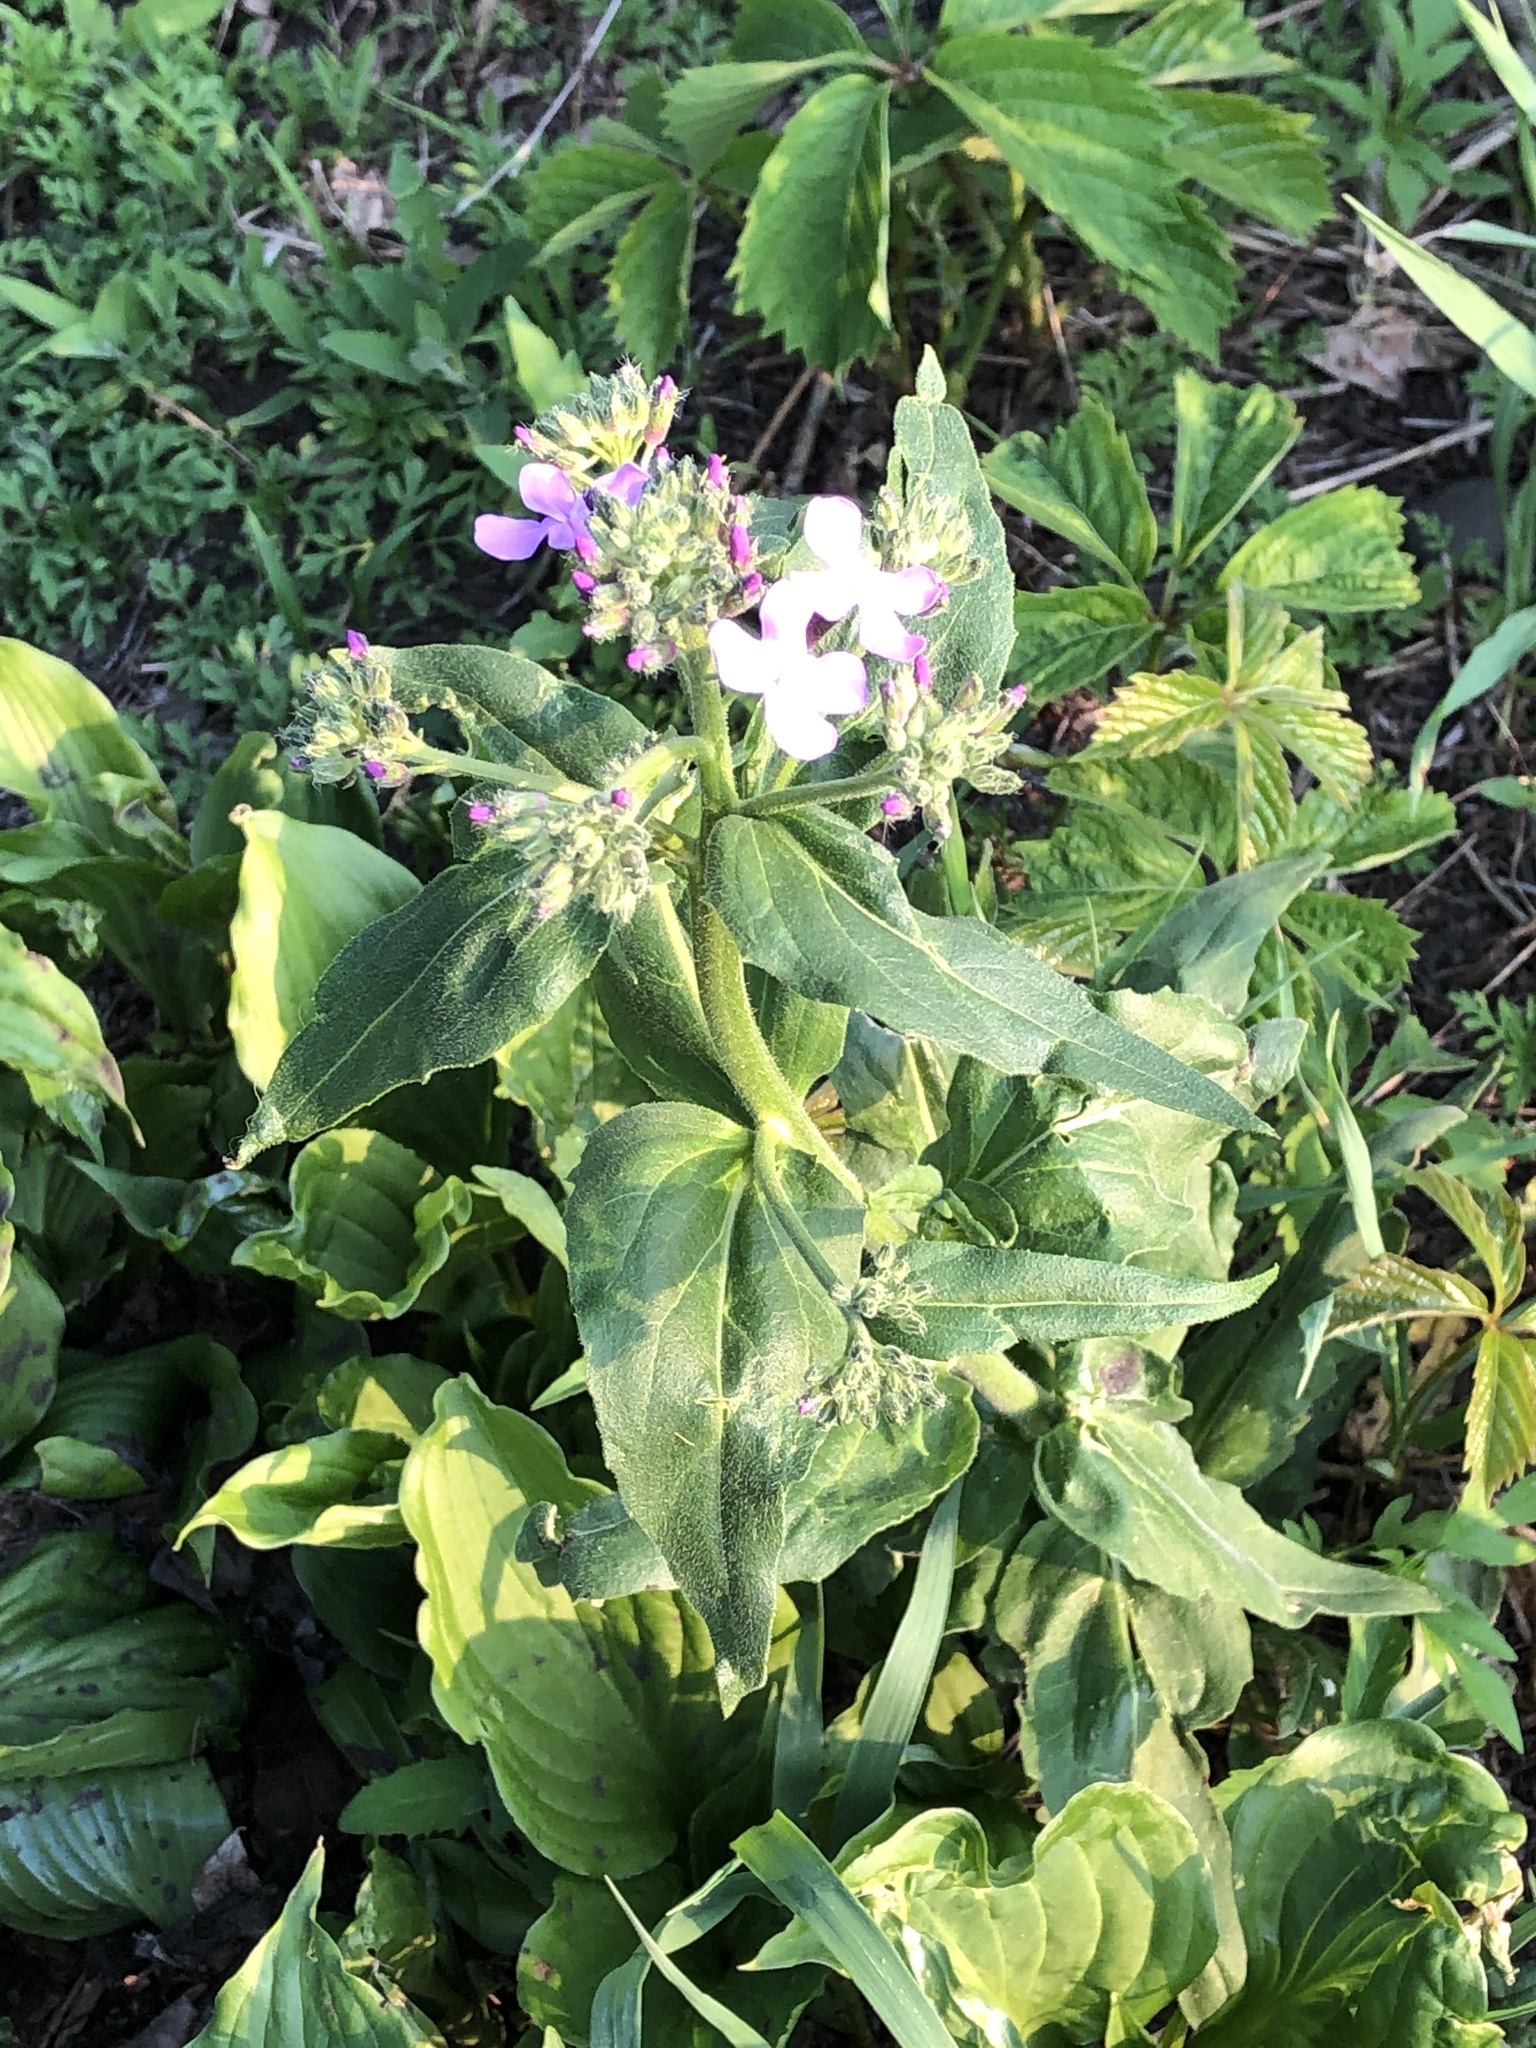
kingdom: Plantae
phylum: Tracheophyta
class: Magnoliopsida
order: Brassicales
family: Brassicaceae
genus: Hesperis
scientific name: Hesperis matronalis
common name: Dame's-violet
